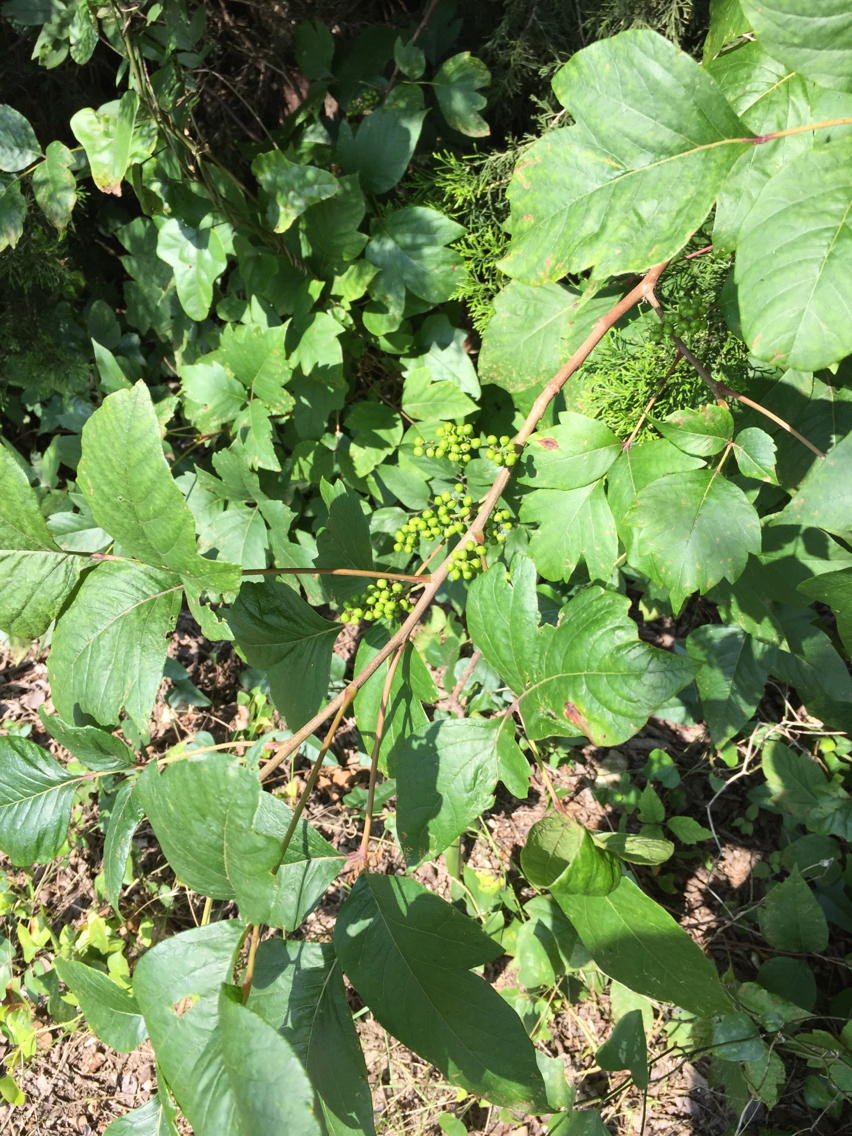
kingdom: Plantae
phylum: Tracheophyta
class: Magnoliopsida
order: Sapindales
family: Anacardiaceae
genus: Toxicodendron
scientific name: Toxicodendron radicans
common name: Poison ivy
